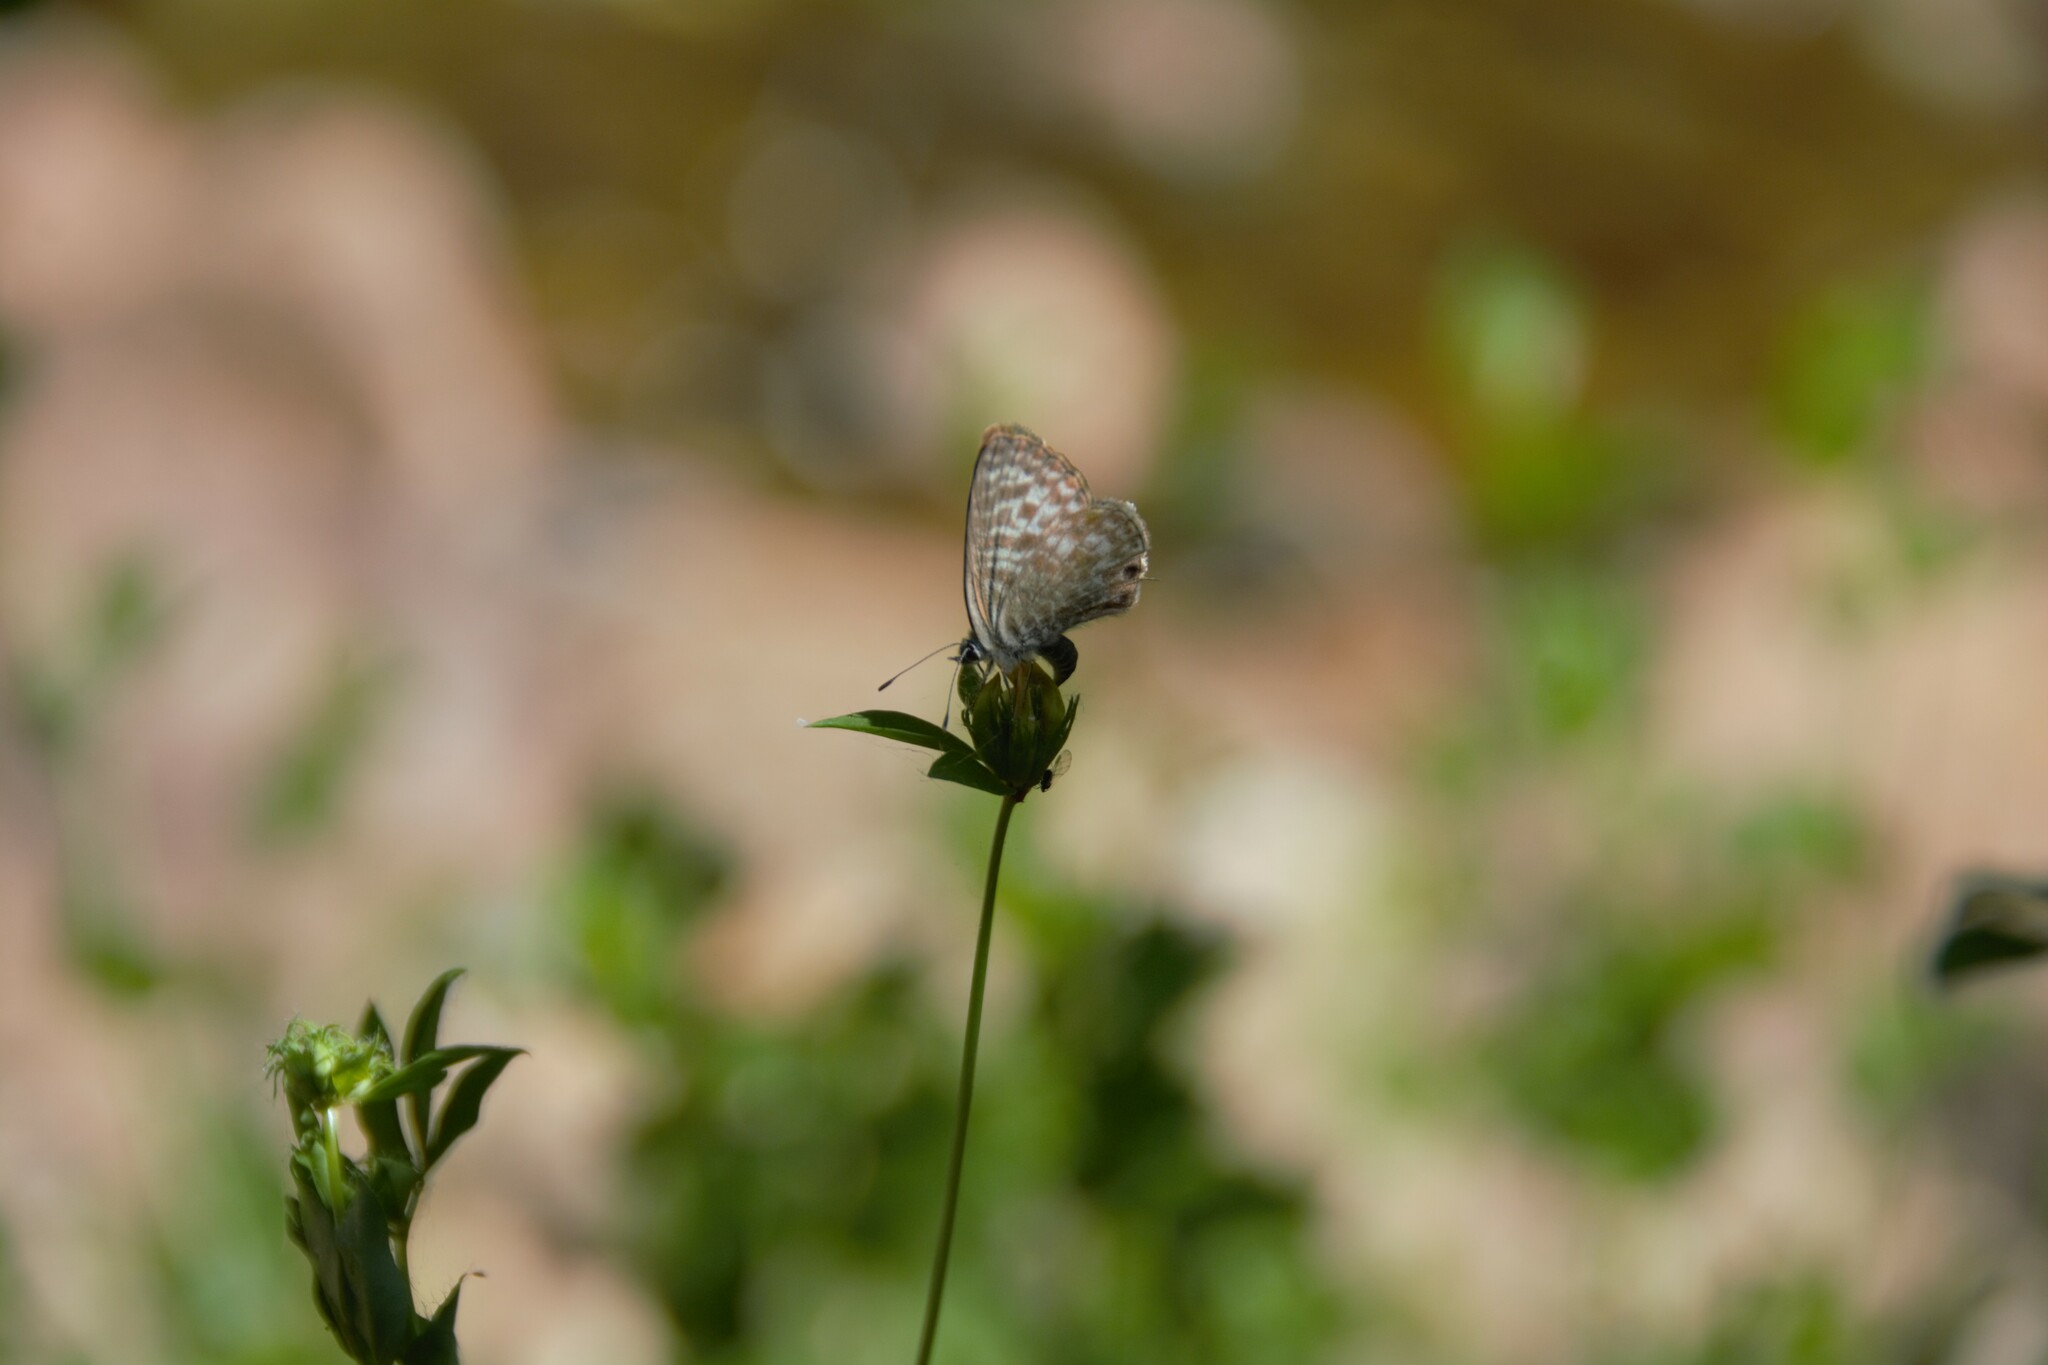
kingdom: Animalia
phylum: Arthropoda
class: Insecta
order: Lepidoptera
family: Lycaenidae
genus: Leptotes
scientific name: Leptotes pirithous
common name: Lang's short-tailed blue
